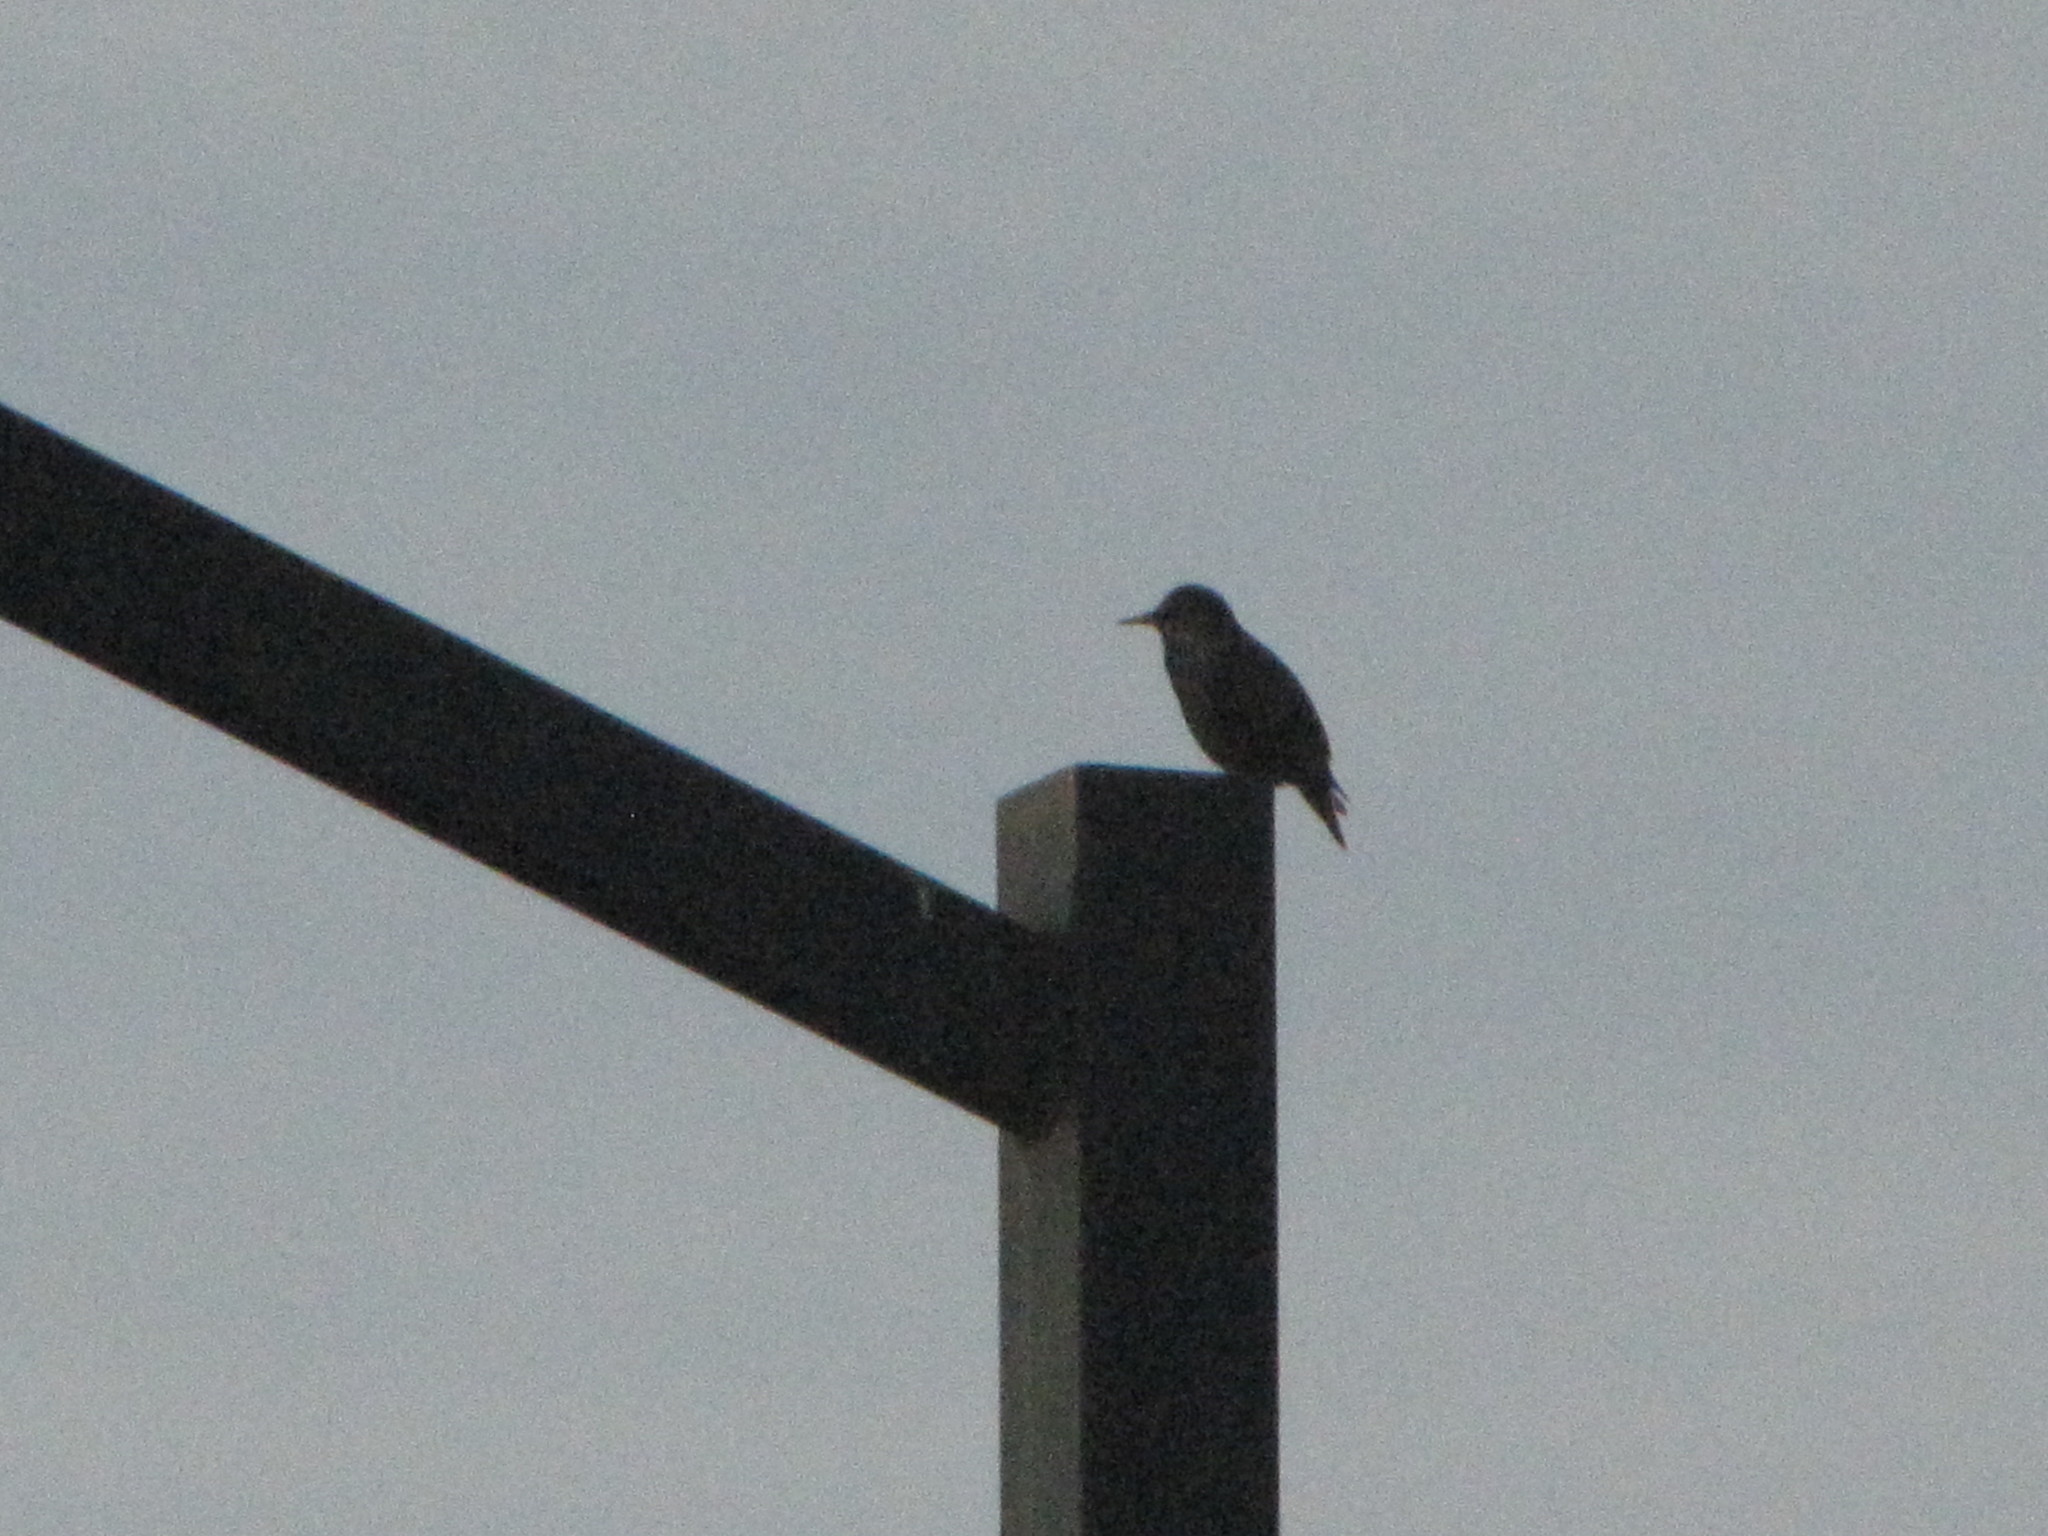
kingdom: Animalia
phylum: Chordata
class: Aves
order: Passeriformes
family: Sturnidae
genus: Sturnus
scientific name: Sturnus vulgaris
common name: Common starling
